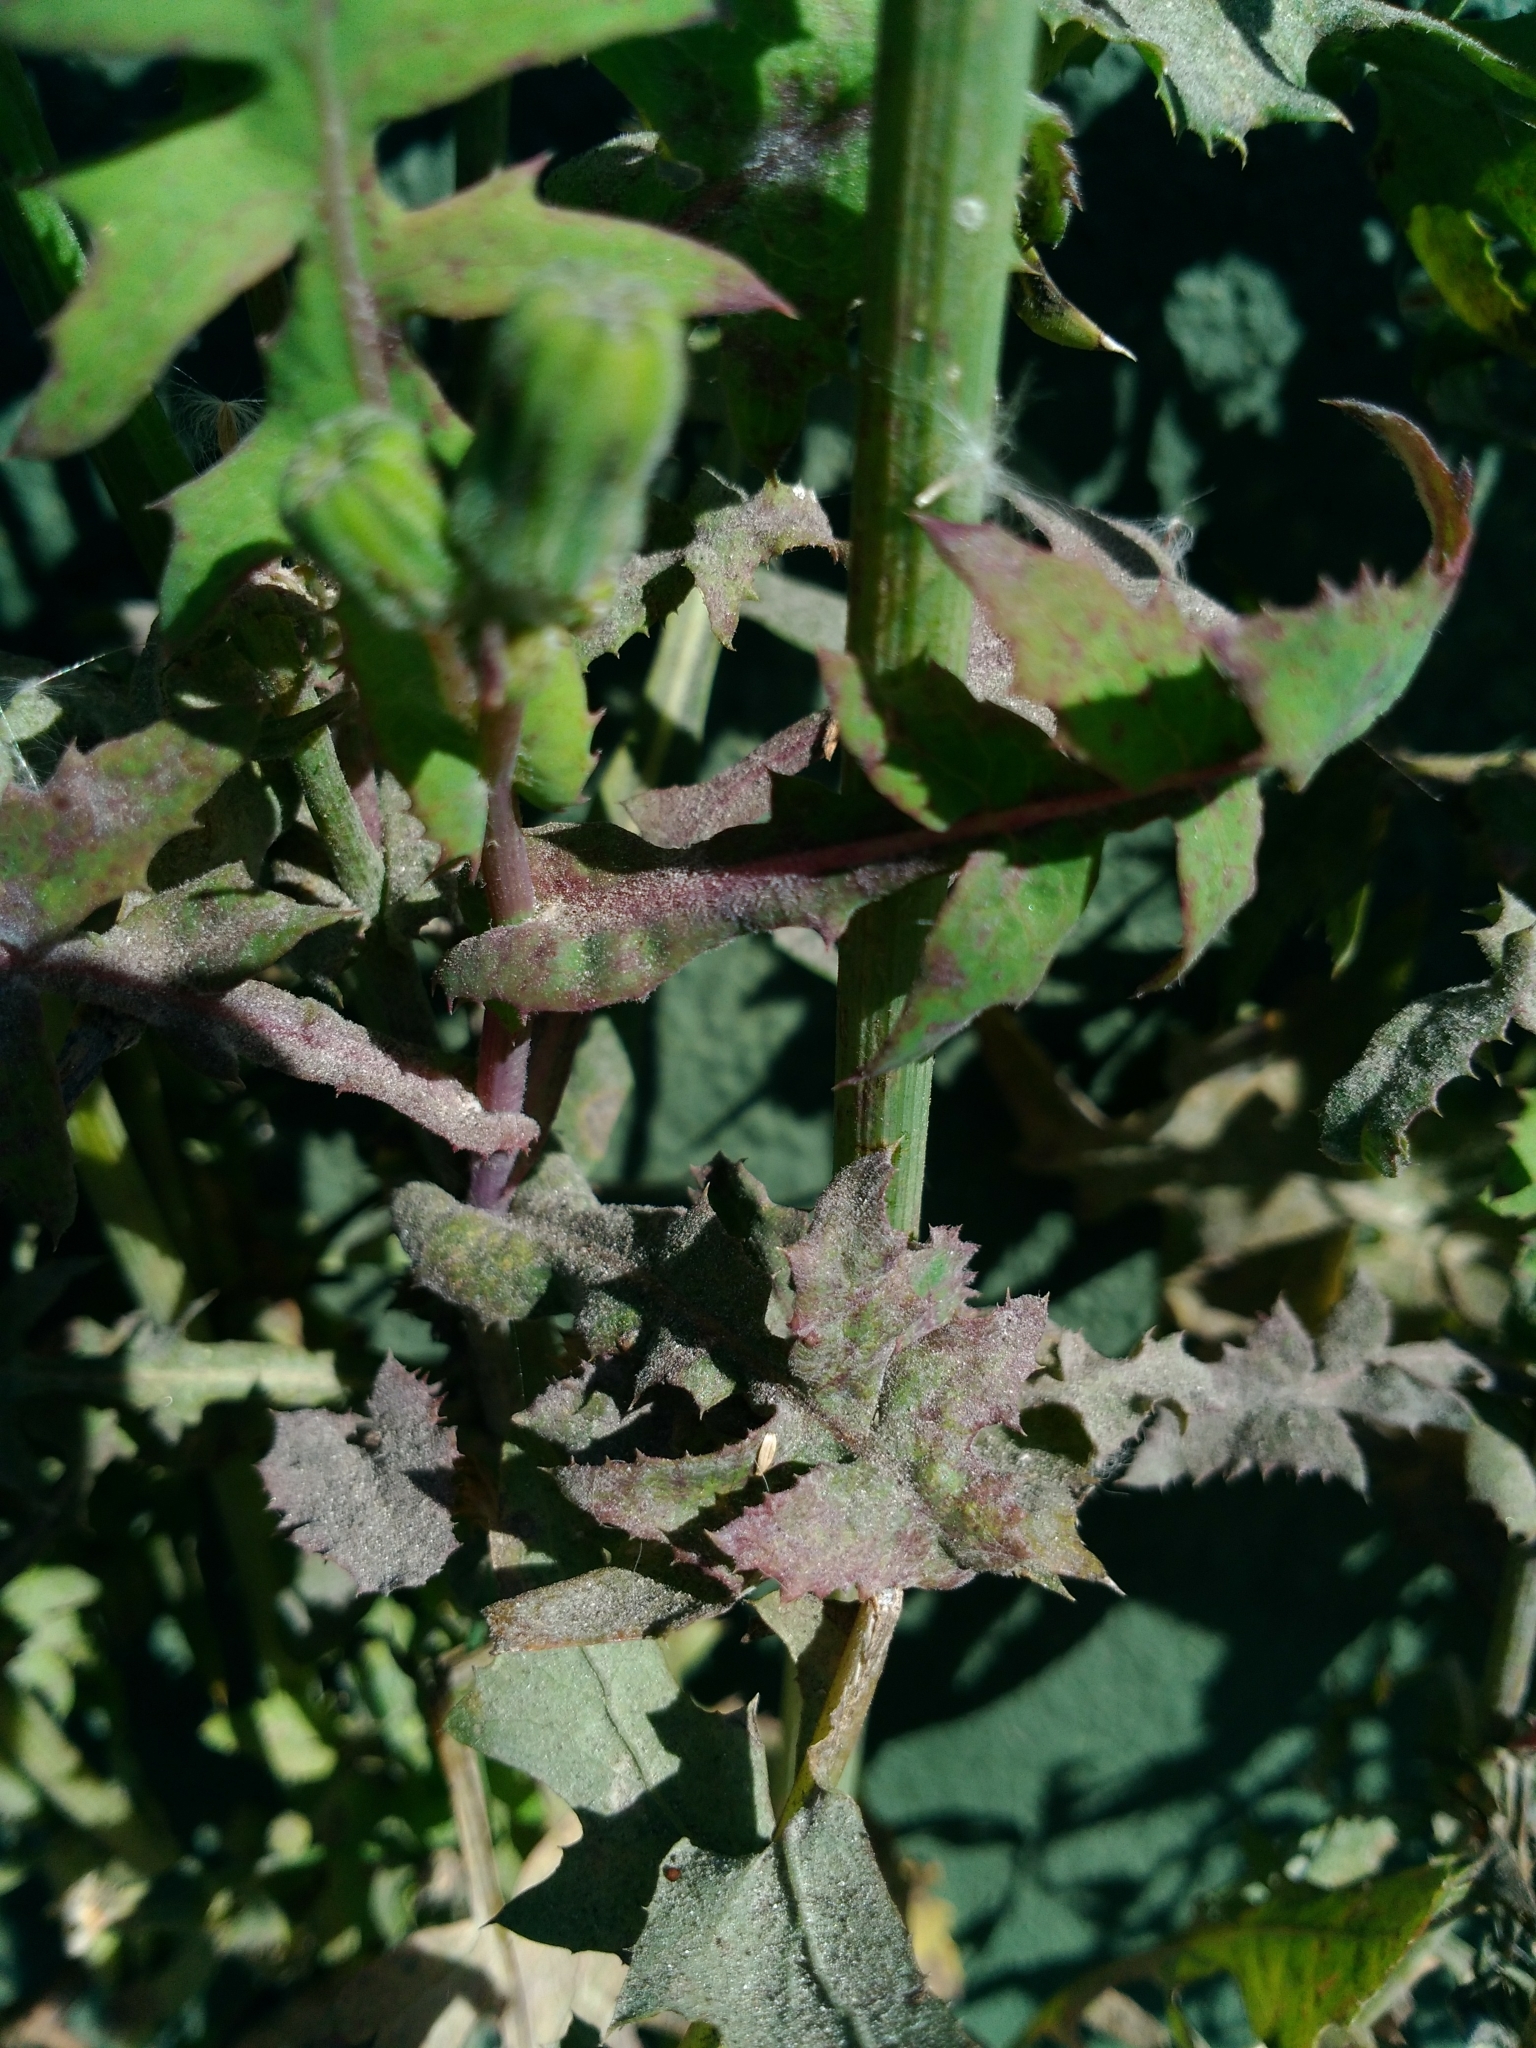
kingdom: Plantae
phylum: Tracheophyta
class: Magnoliopsida
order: Asterales
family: Asteraceae
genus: Sonchus
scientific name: Sonchus oleraceus
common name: Common sowthistle
